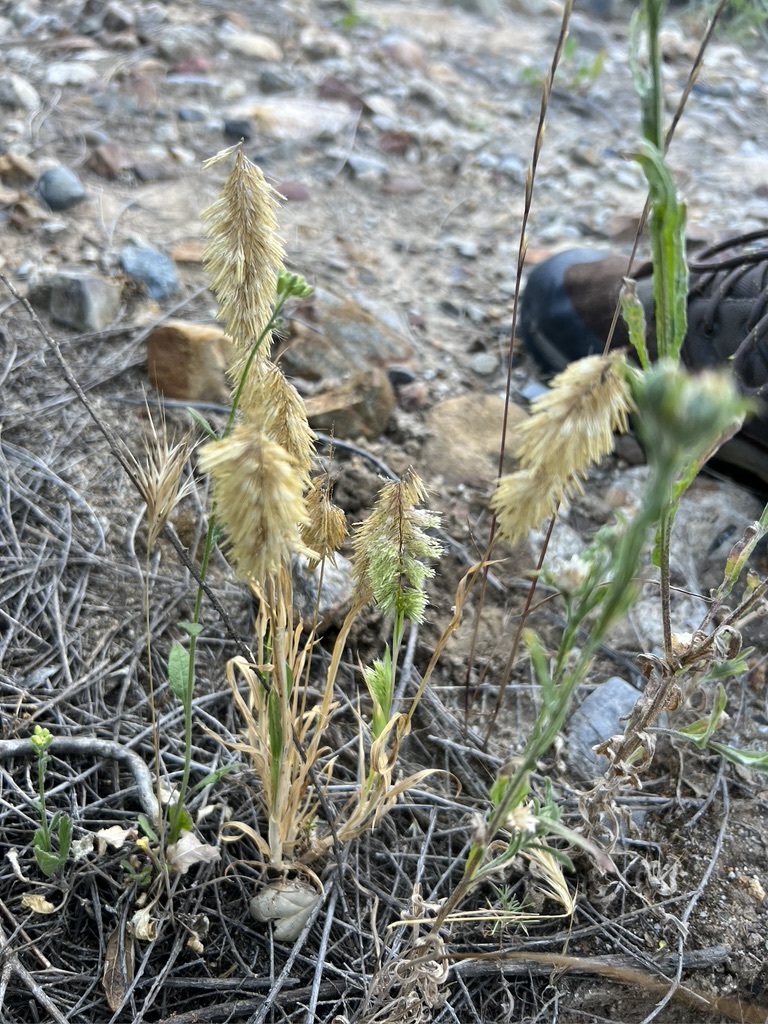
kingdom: Plantae
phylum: Tracheophyta
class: Liliopsida
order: Poales
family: Poaceae
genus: Lamarckia
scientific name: Lamarckia aurea
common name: Golden dog's-tail
